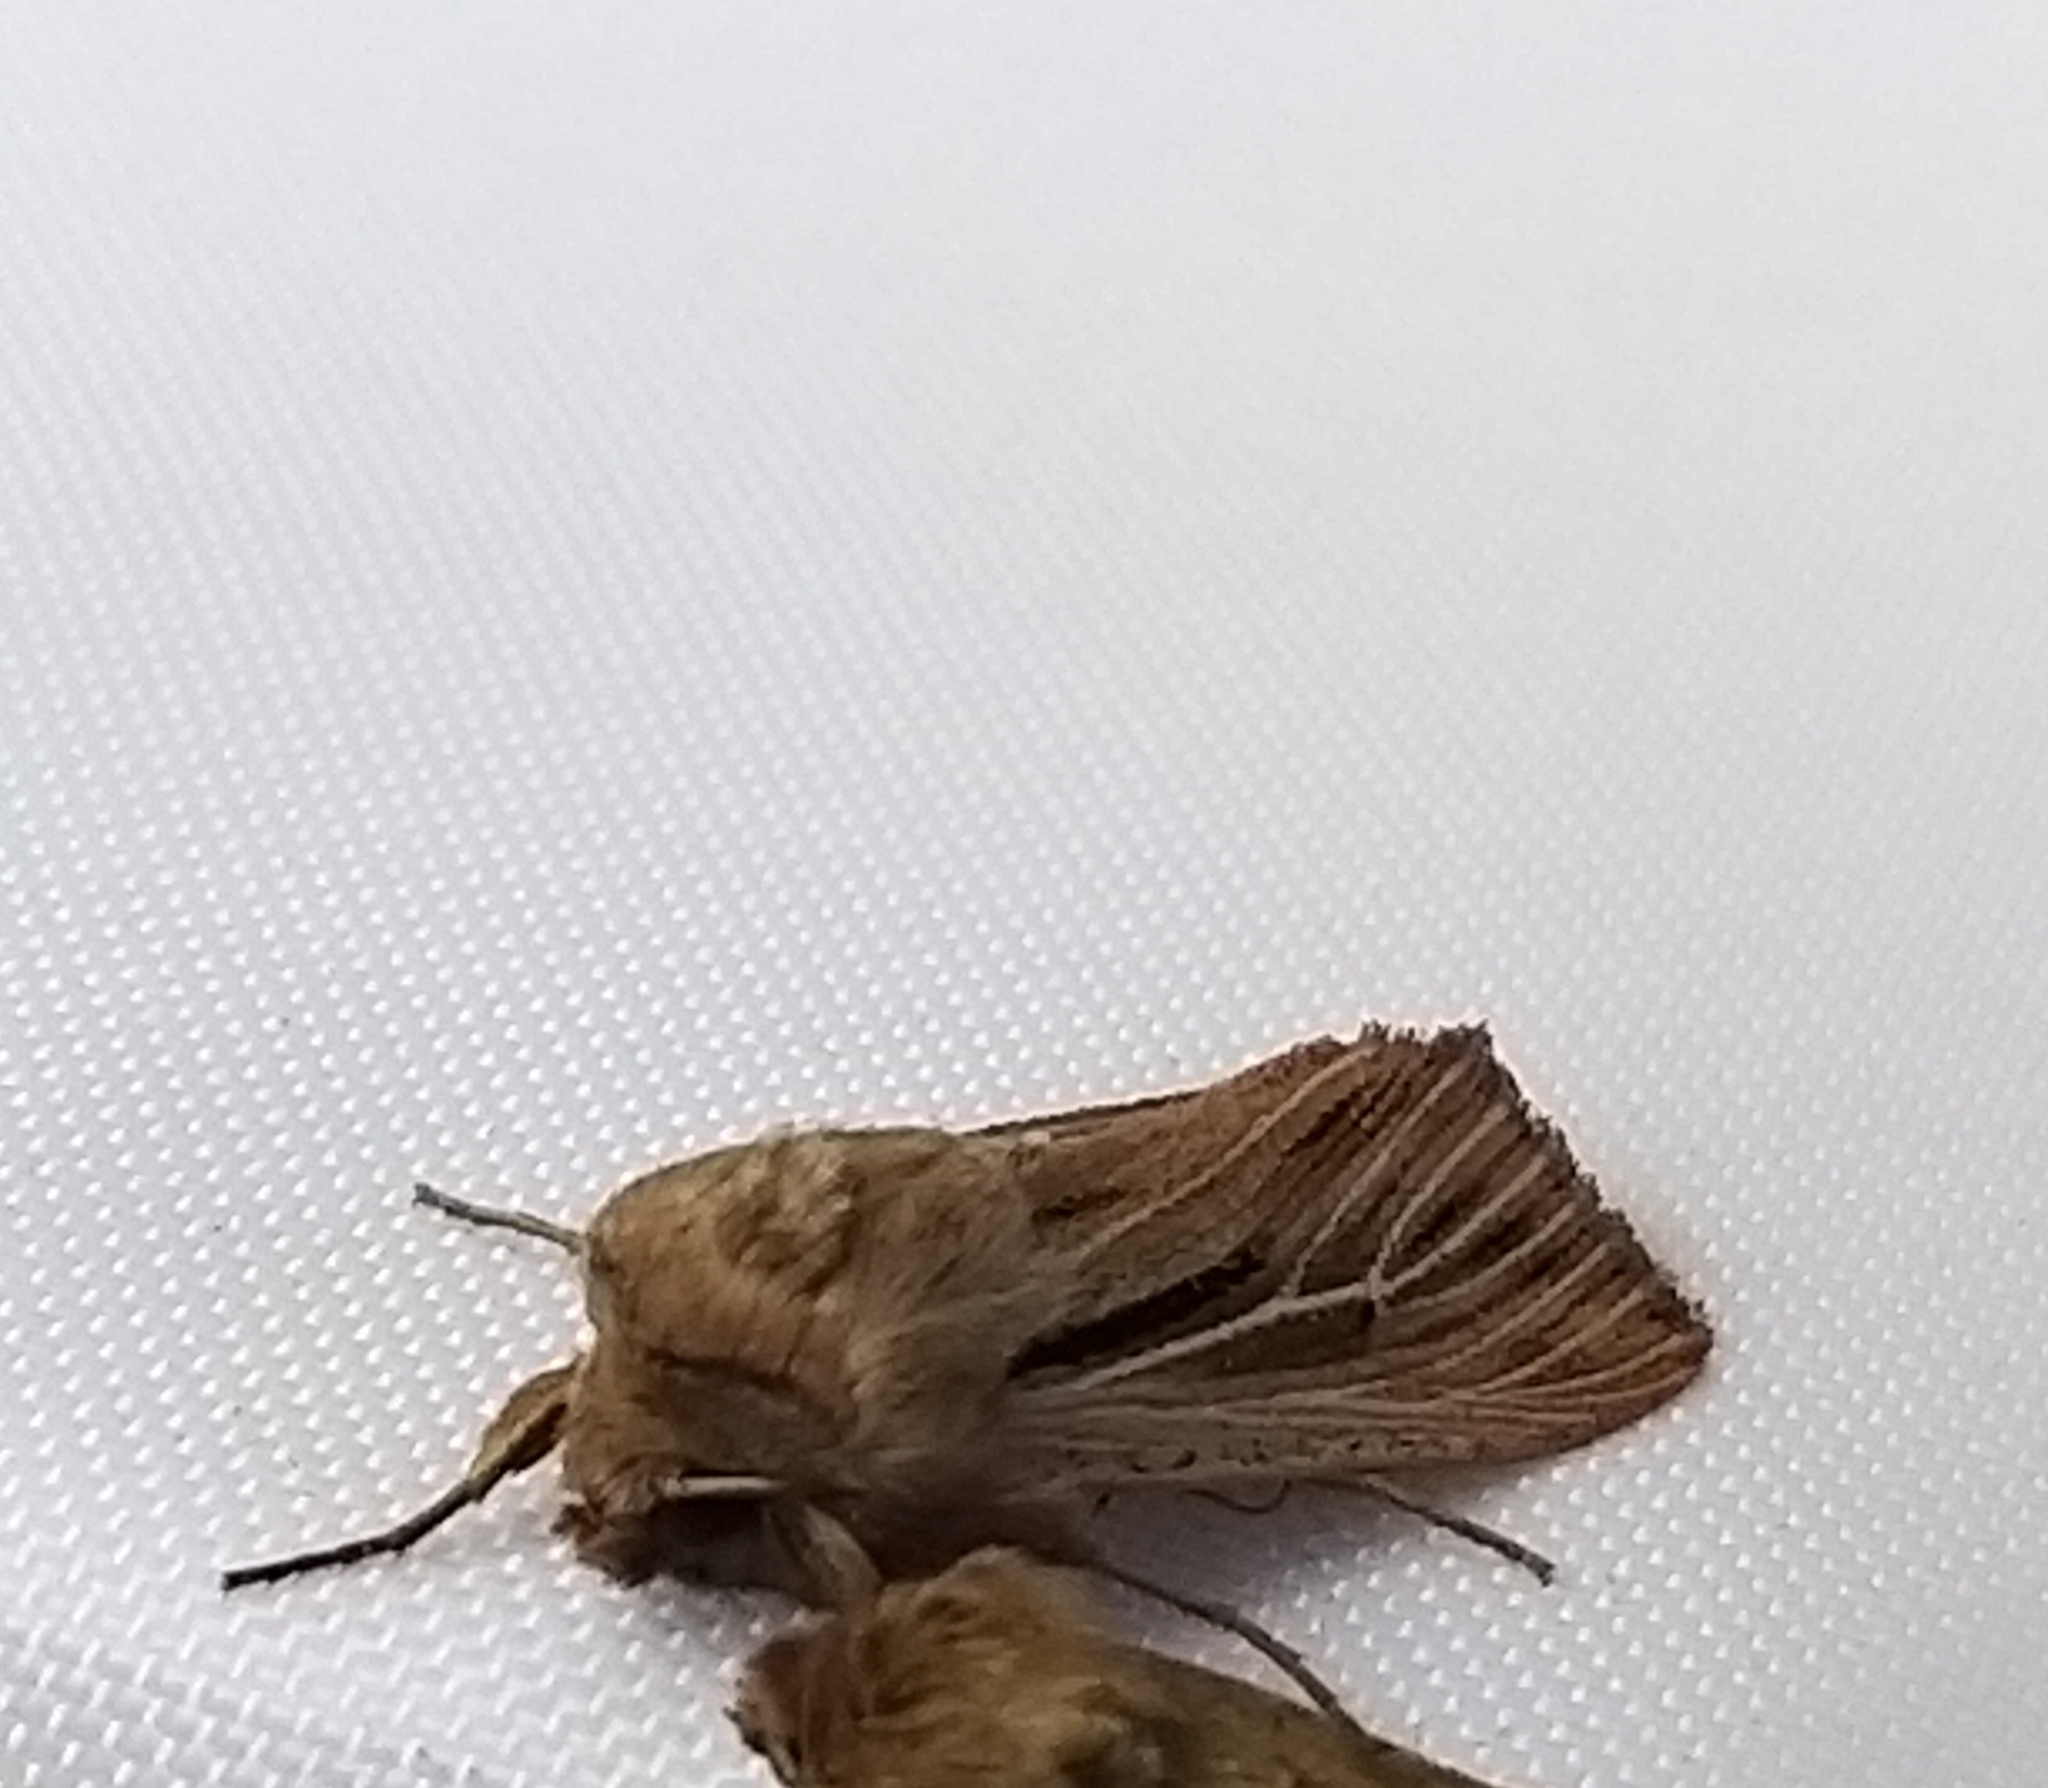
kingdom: Animalia
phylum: Arthropoda
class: Insecta
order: Lepidoptera
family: Noctuidae
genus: Leucania
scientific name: Leucania comma
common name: Shoulder-striped wainscot
